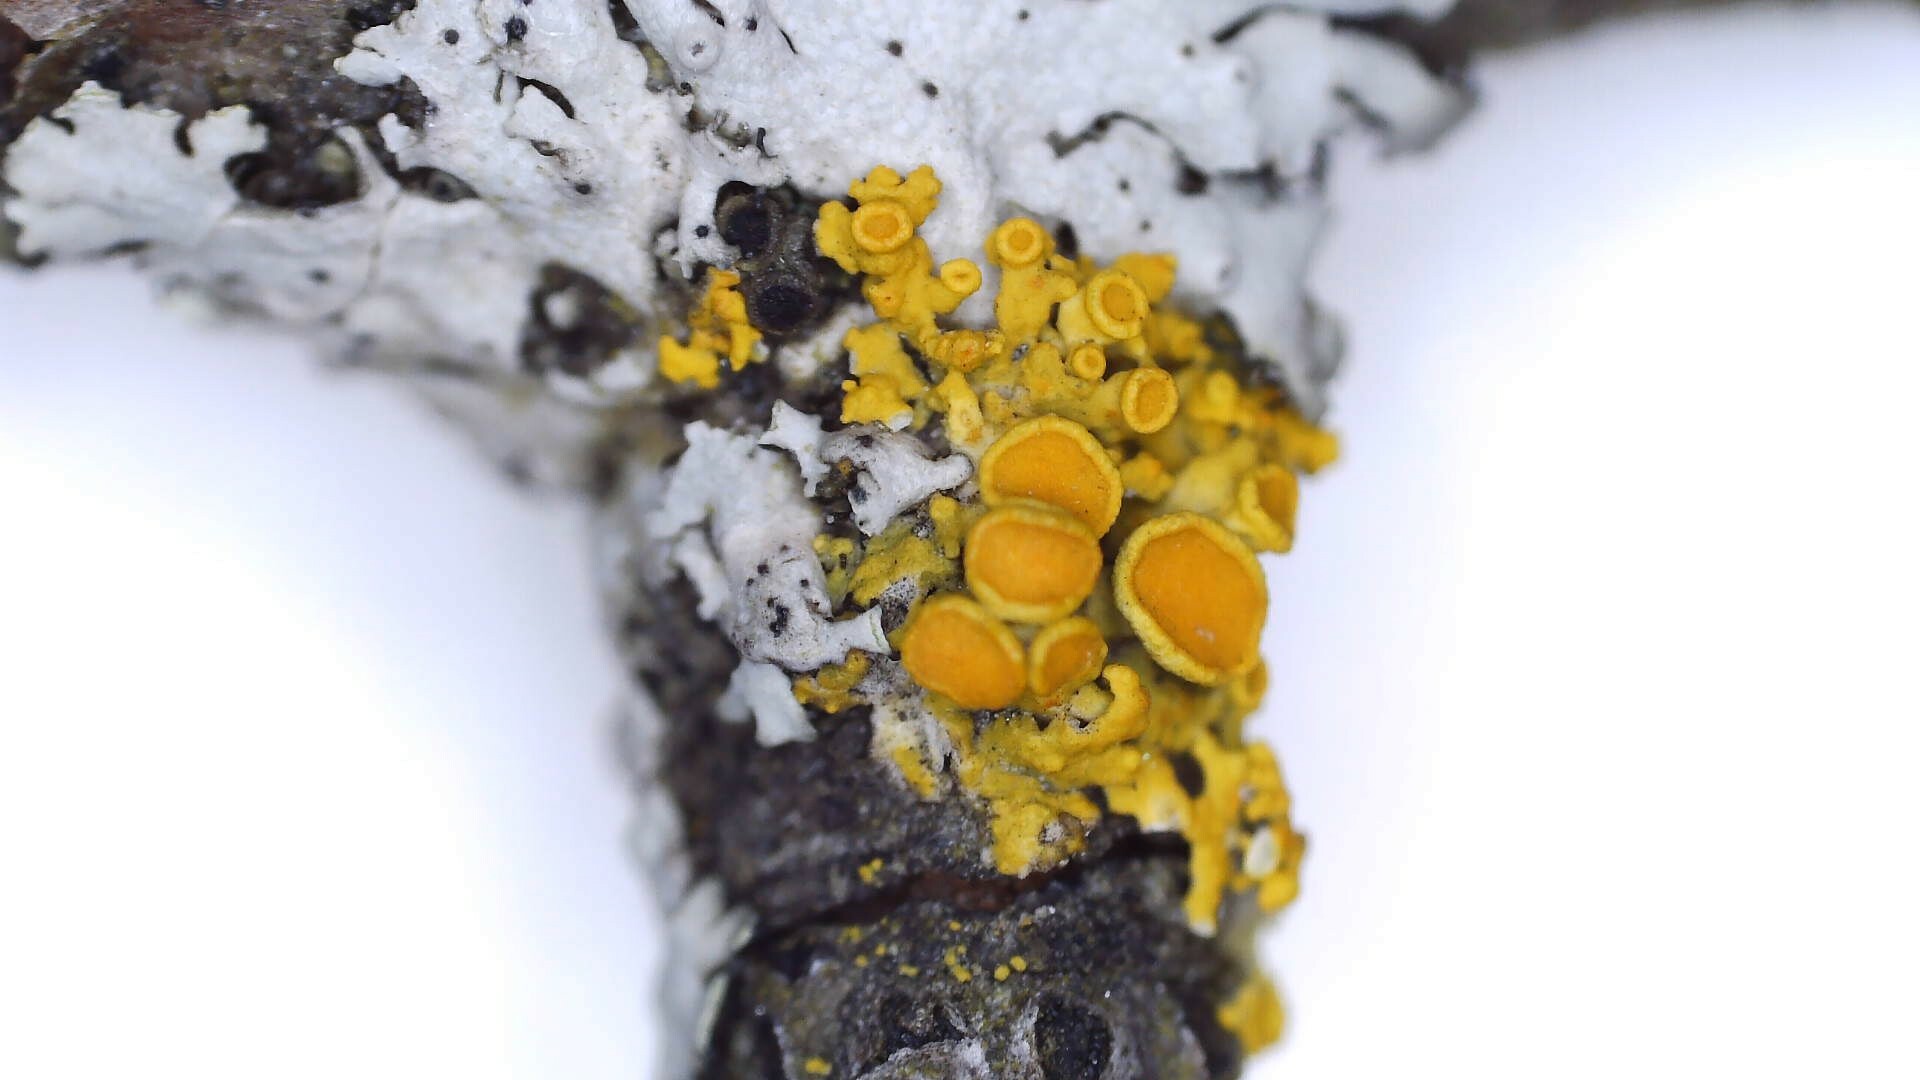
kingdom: Fungi
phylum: Ascomycota
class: Lecanoromycetes
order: Teloschistales
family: Teloschistaceae
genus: Polycauliona
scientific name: Polycauliona polycarpa
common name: Pin-cushion sunburst lichen
